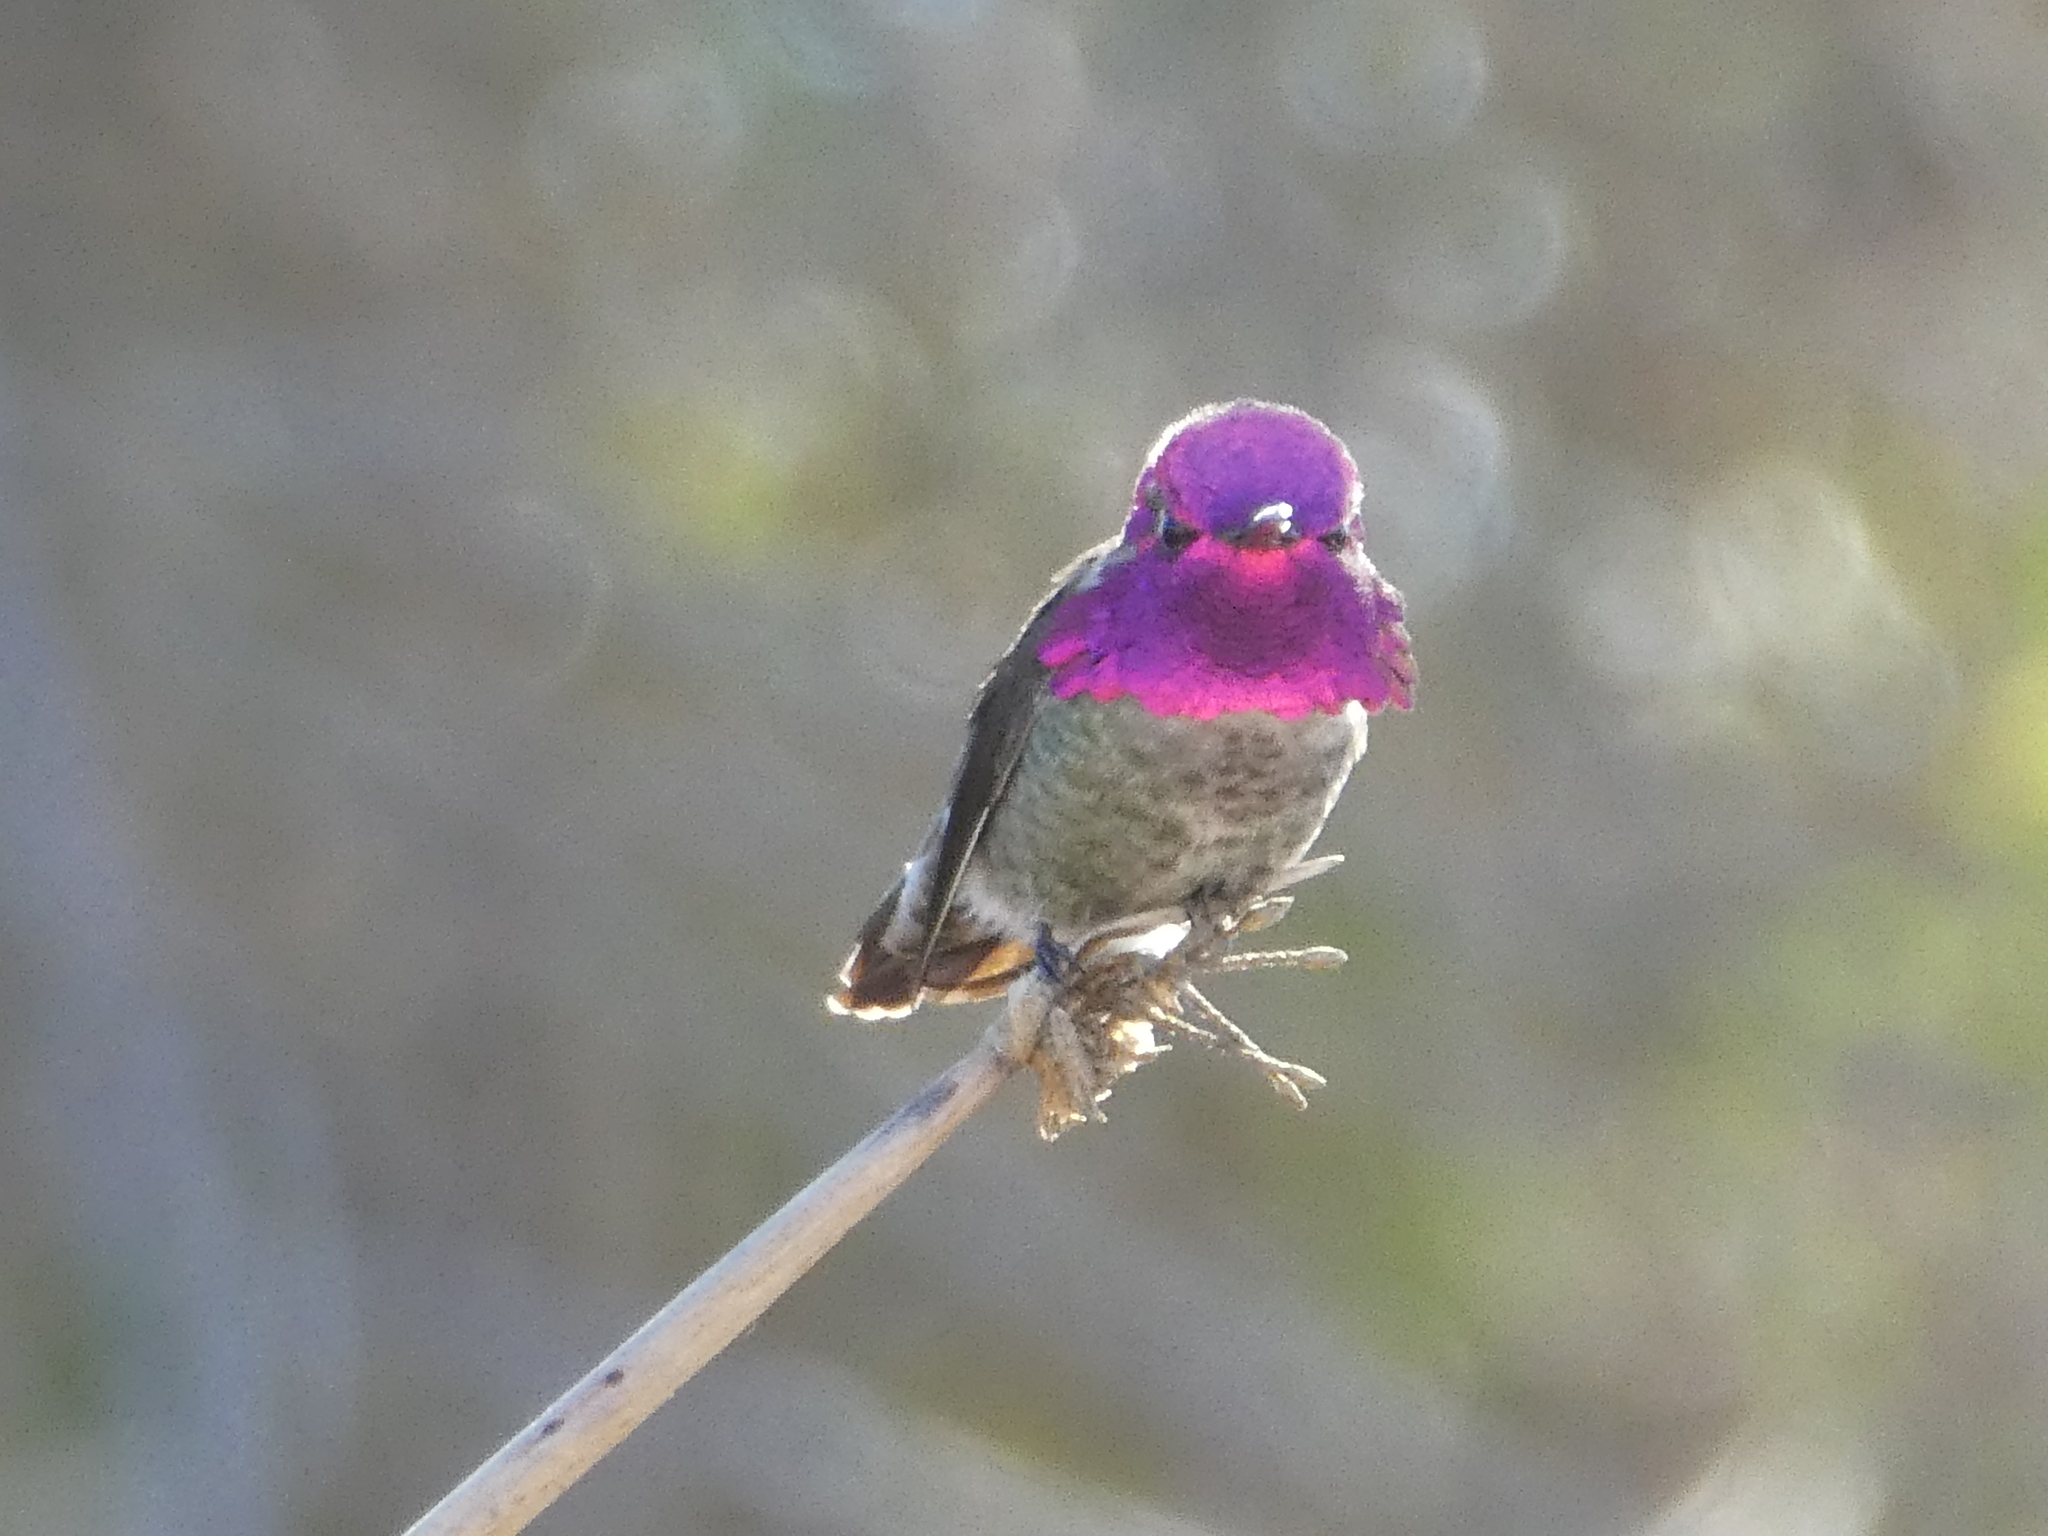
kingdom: Animalia
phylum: Chordata
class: Aves
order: Apodiformes
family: Trochilidae
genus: Calypte
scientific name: Calypte anna
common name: Anna's hummingbird
